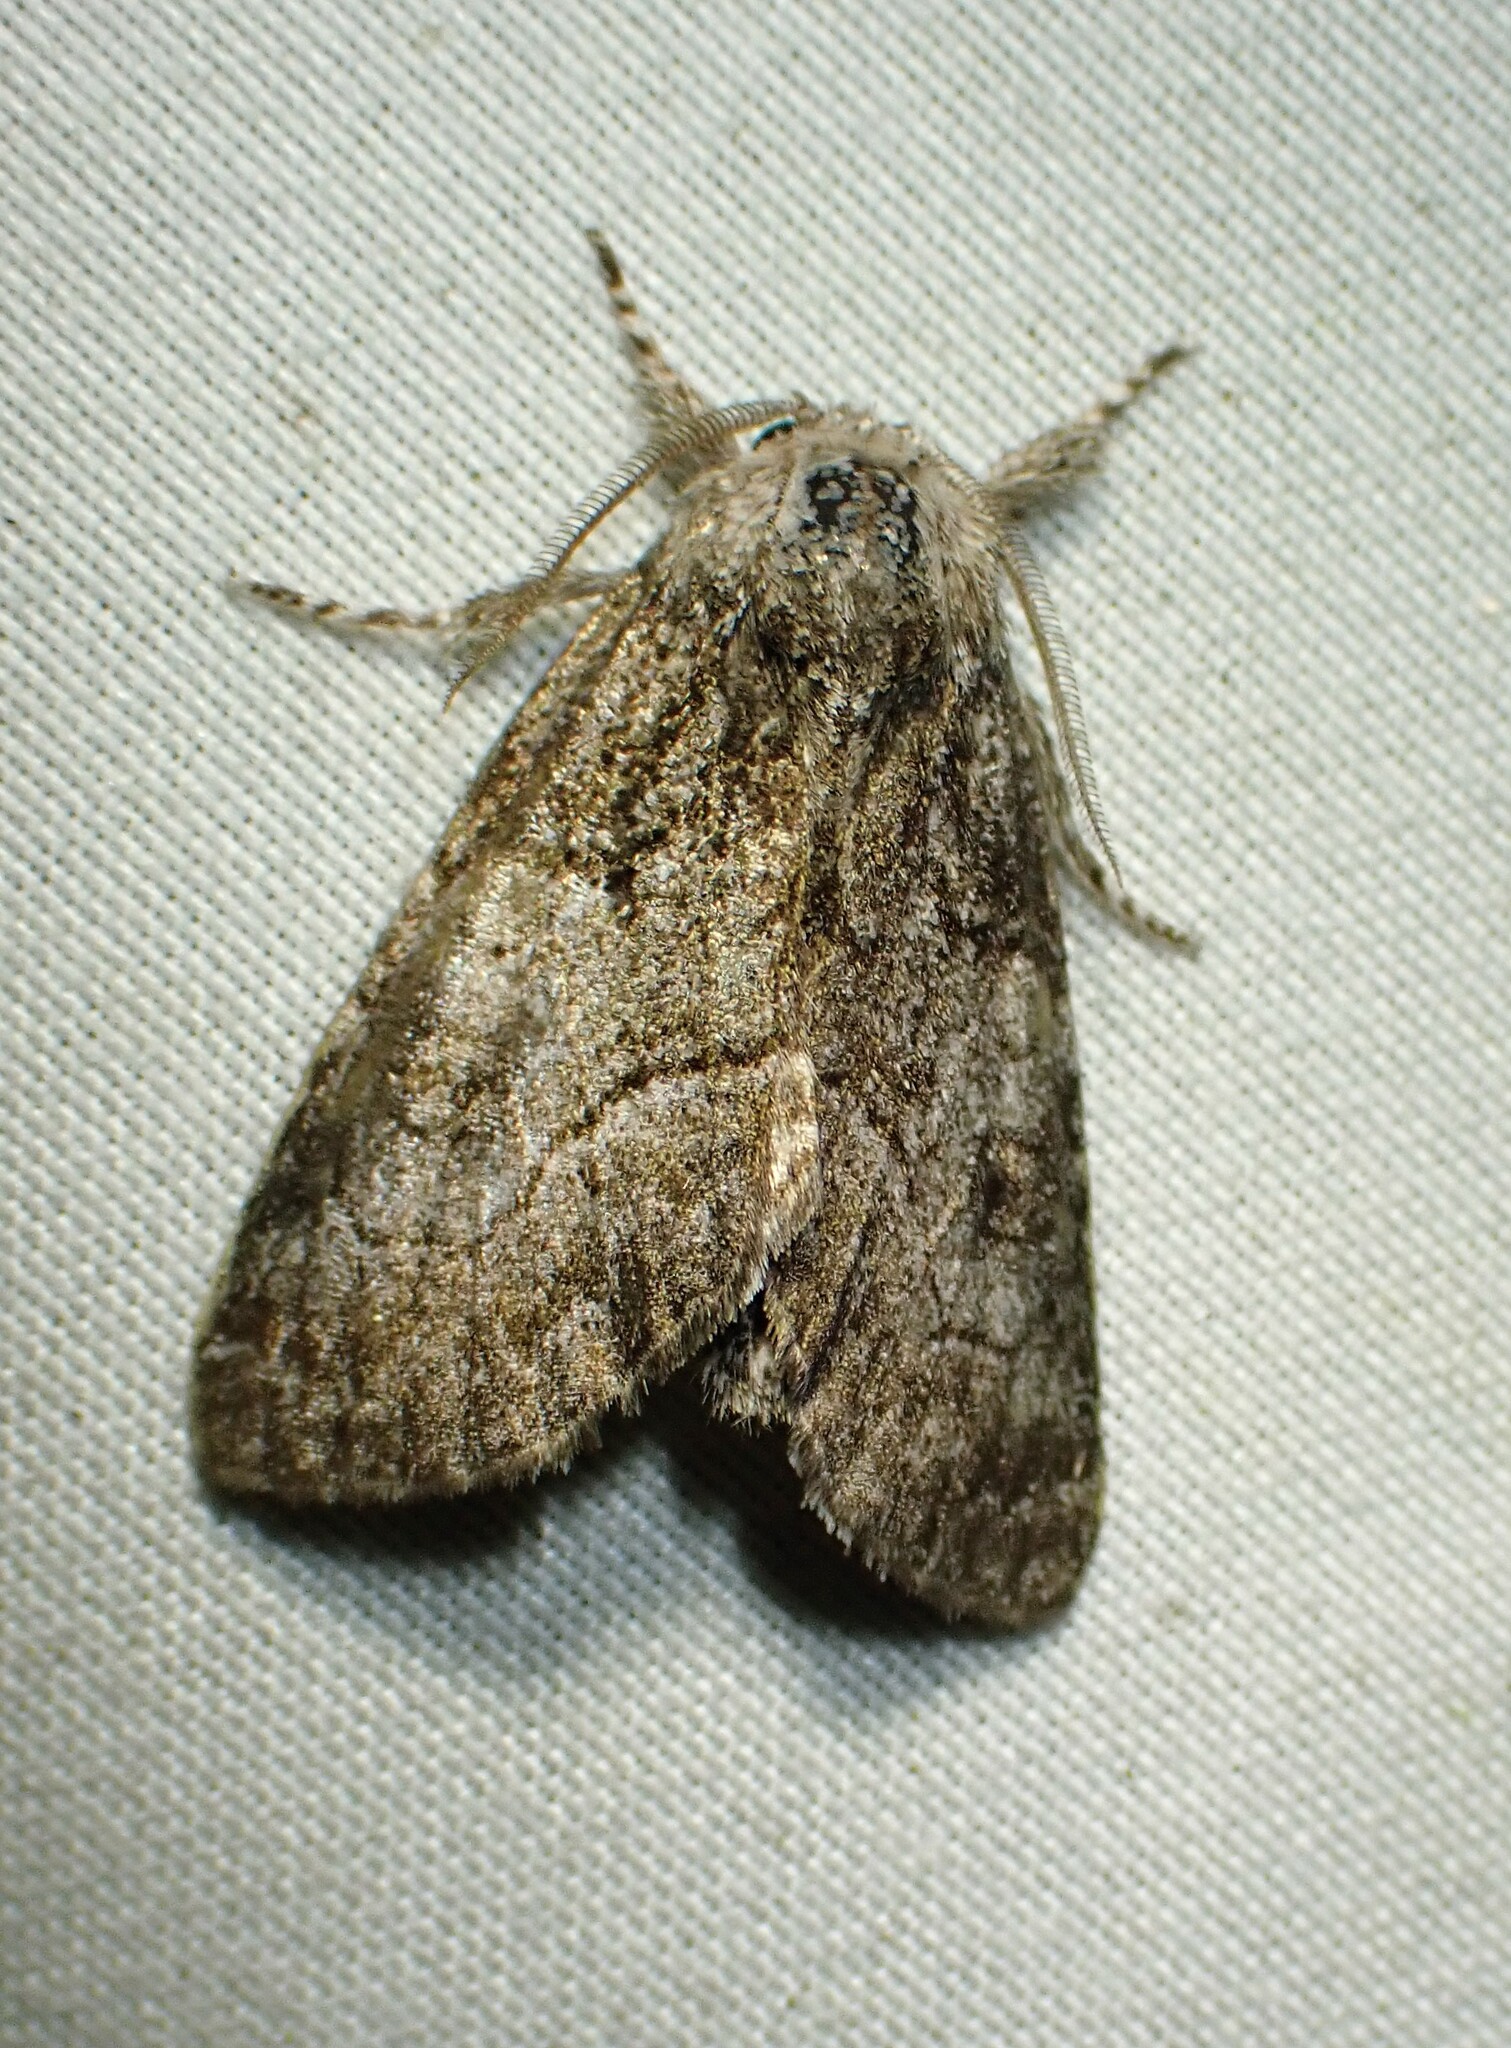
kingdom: Animalia
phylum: Arthropoda
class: Insecta
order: Lepidoptera
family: Noctuidae
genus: Raphia
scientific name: Raphia frater
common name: Brother
